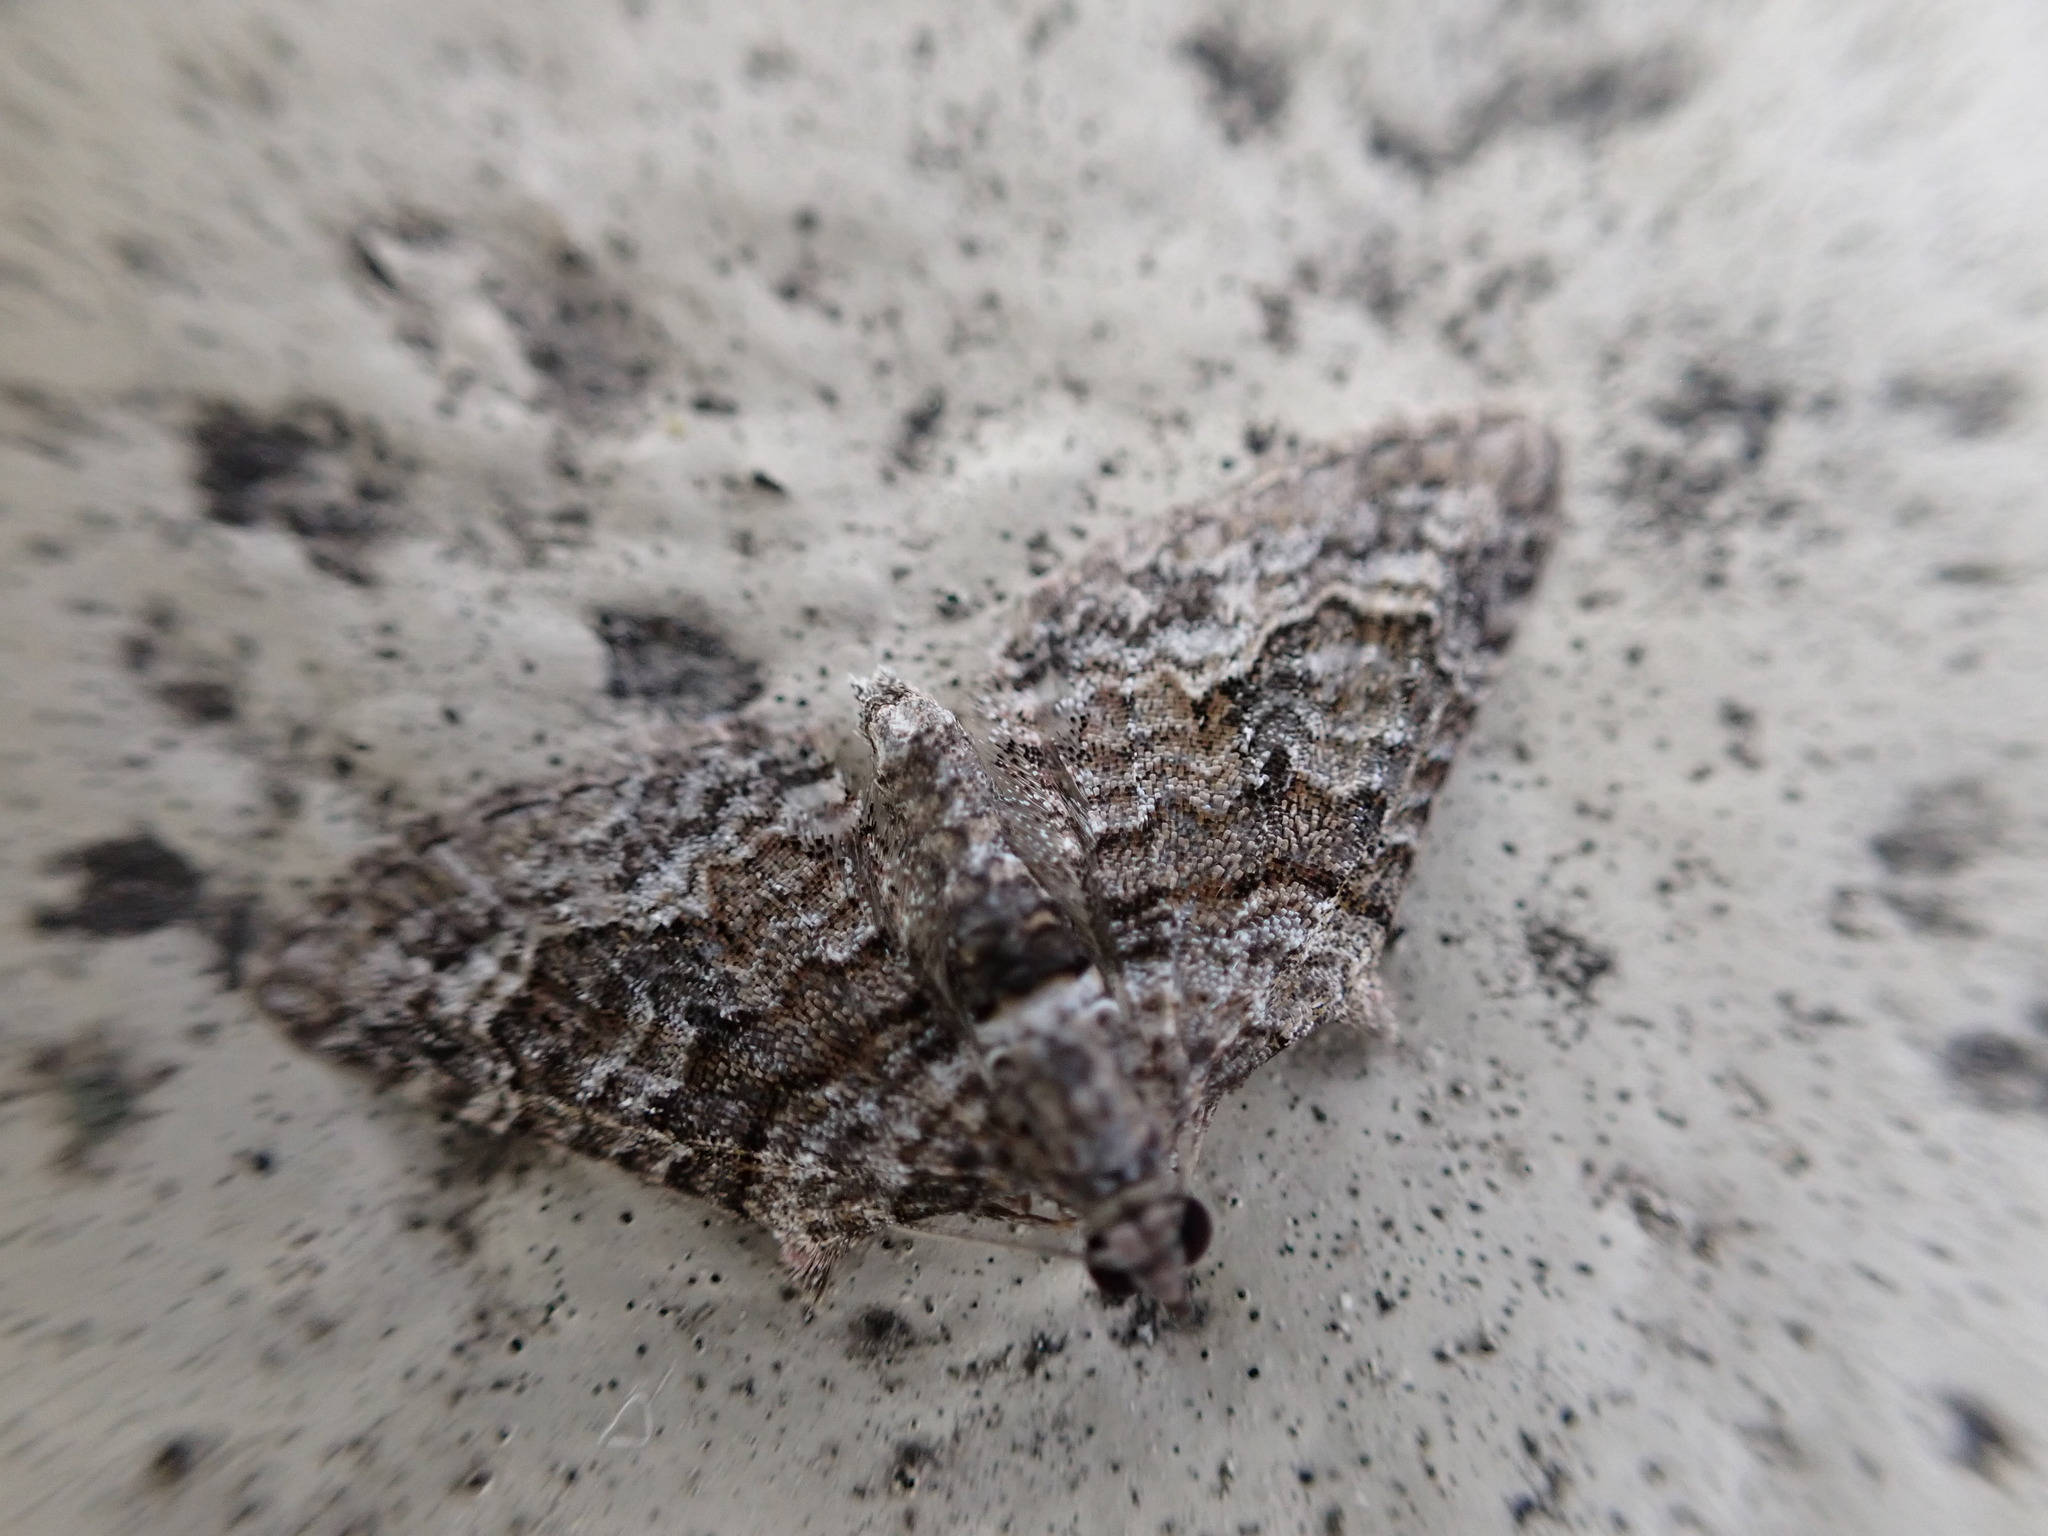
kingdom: Animalia
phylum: Arthropoda
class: Insecta
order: Lepidoptera
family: Geometridae
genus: Phrissogonus
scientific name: Phrissogonus laticostata
